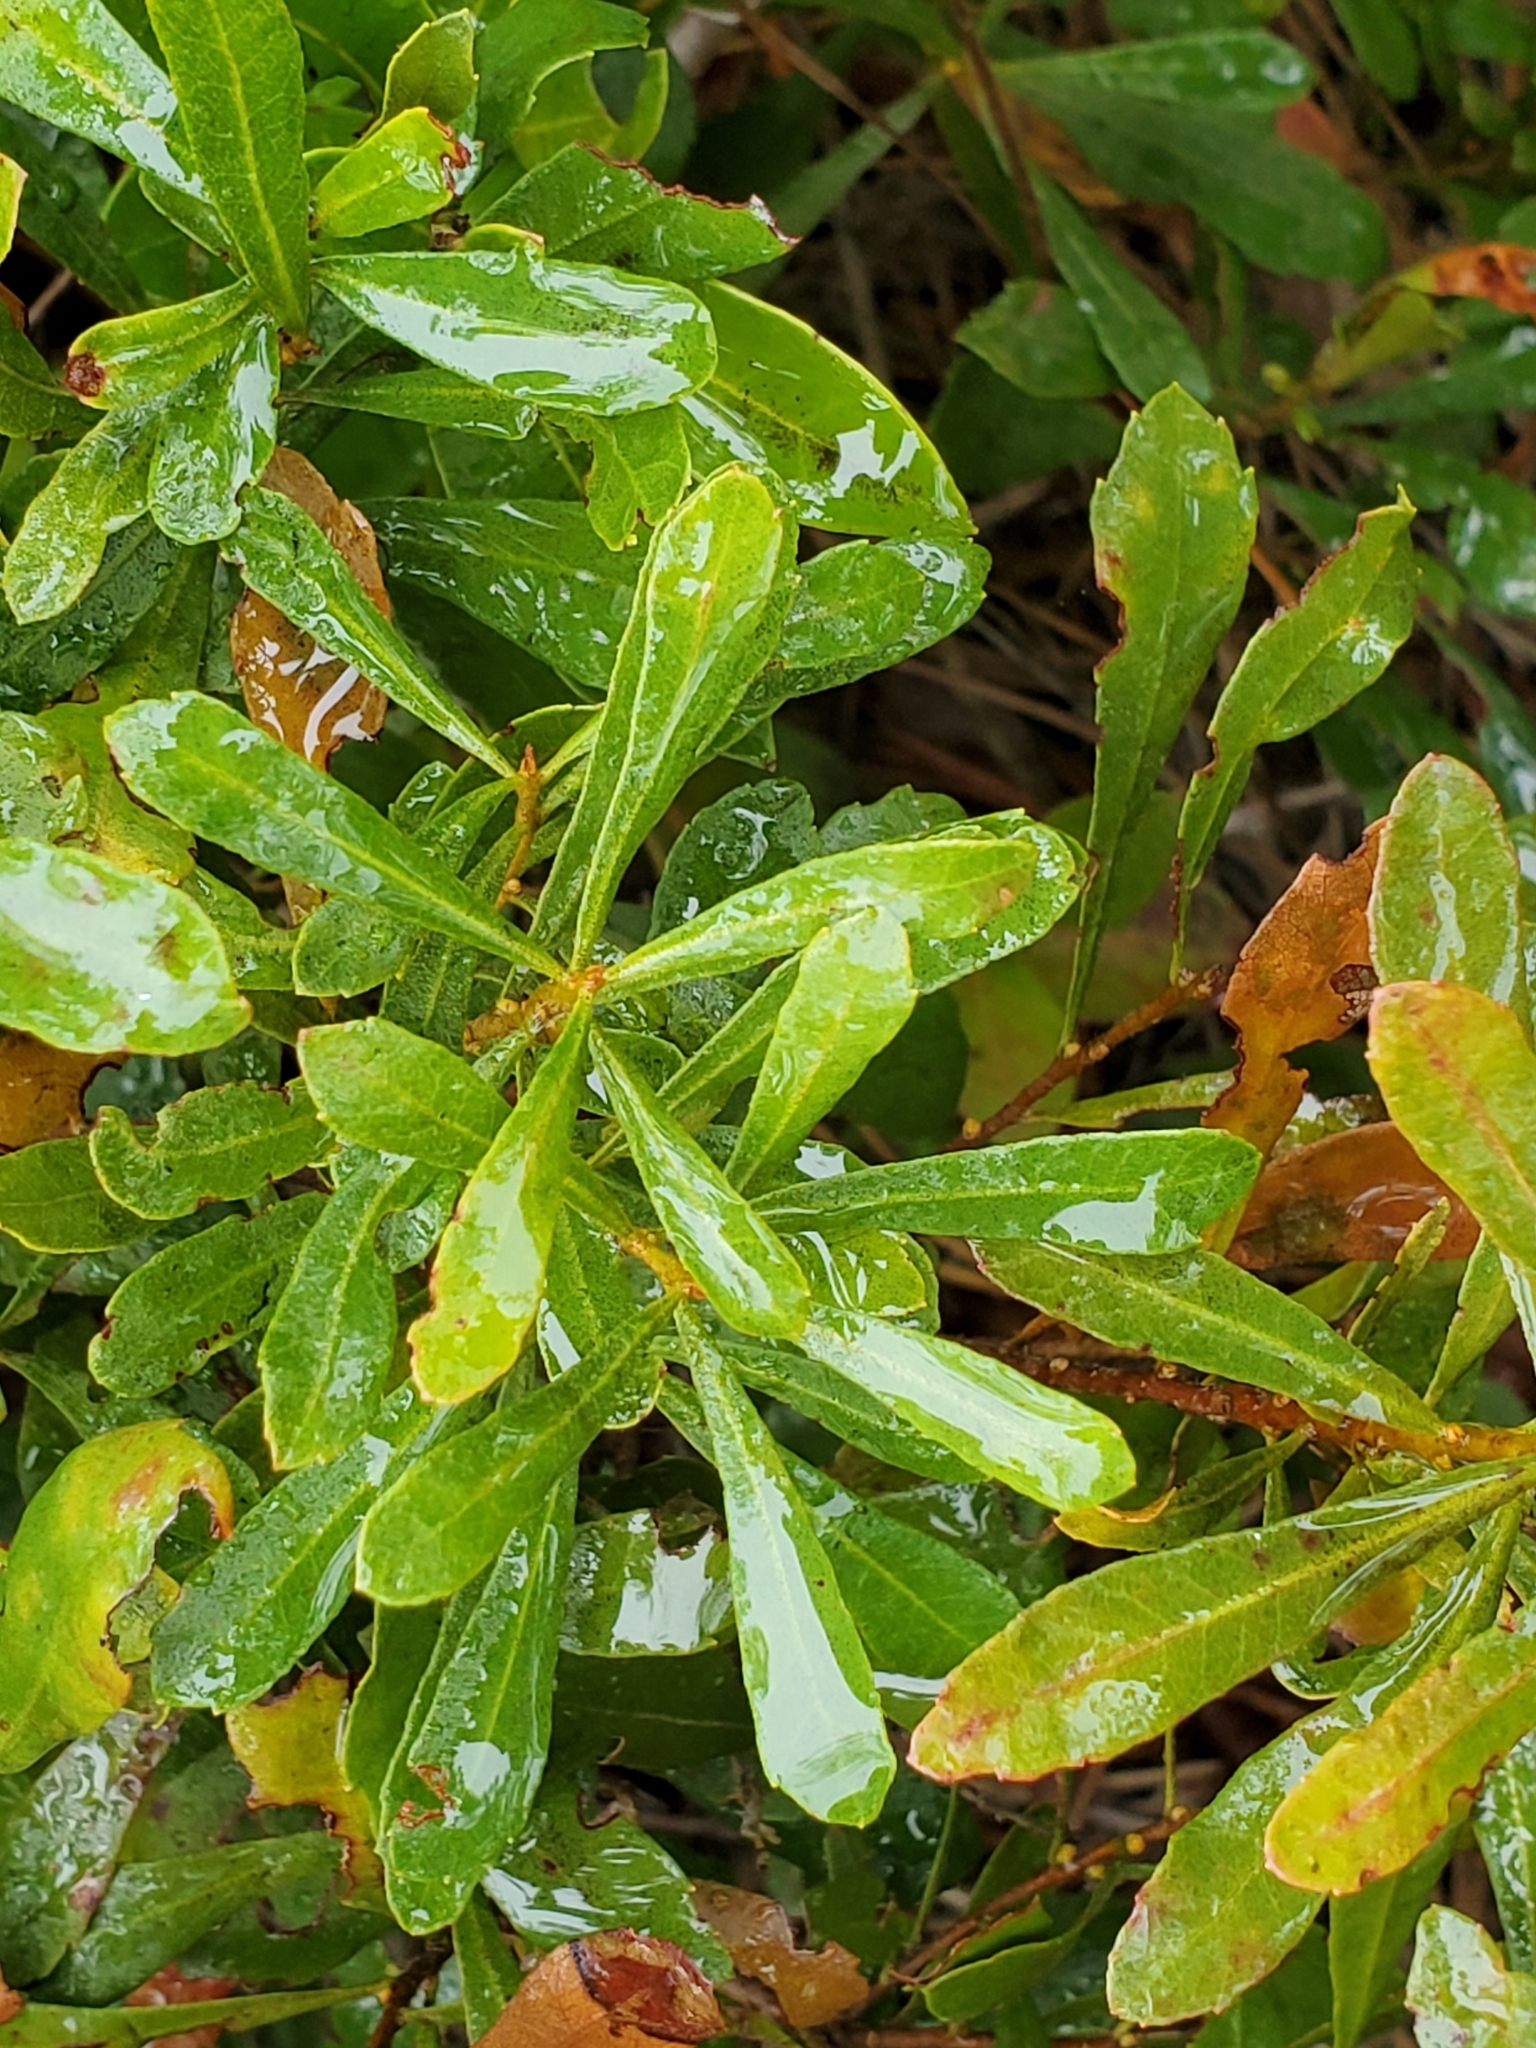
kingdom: Plantae
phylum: Tracheophyta
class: Magnoliopsida
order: Fagales
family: Myricaceae
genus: Morella
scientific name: Morella cerifera
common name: Wax myrtle
